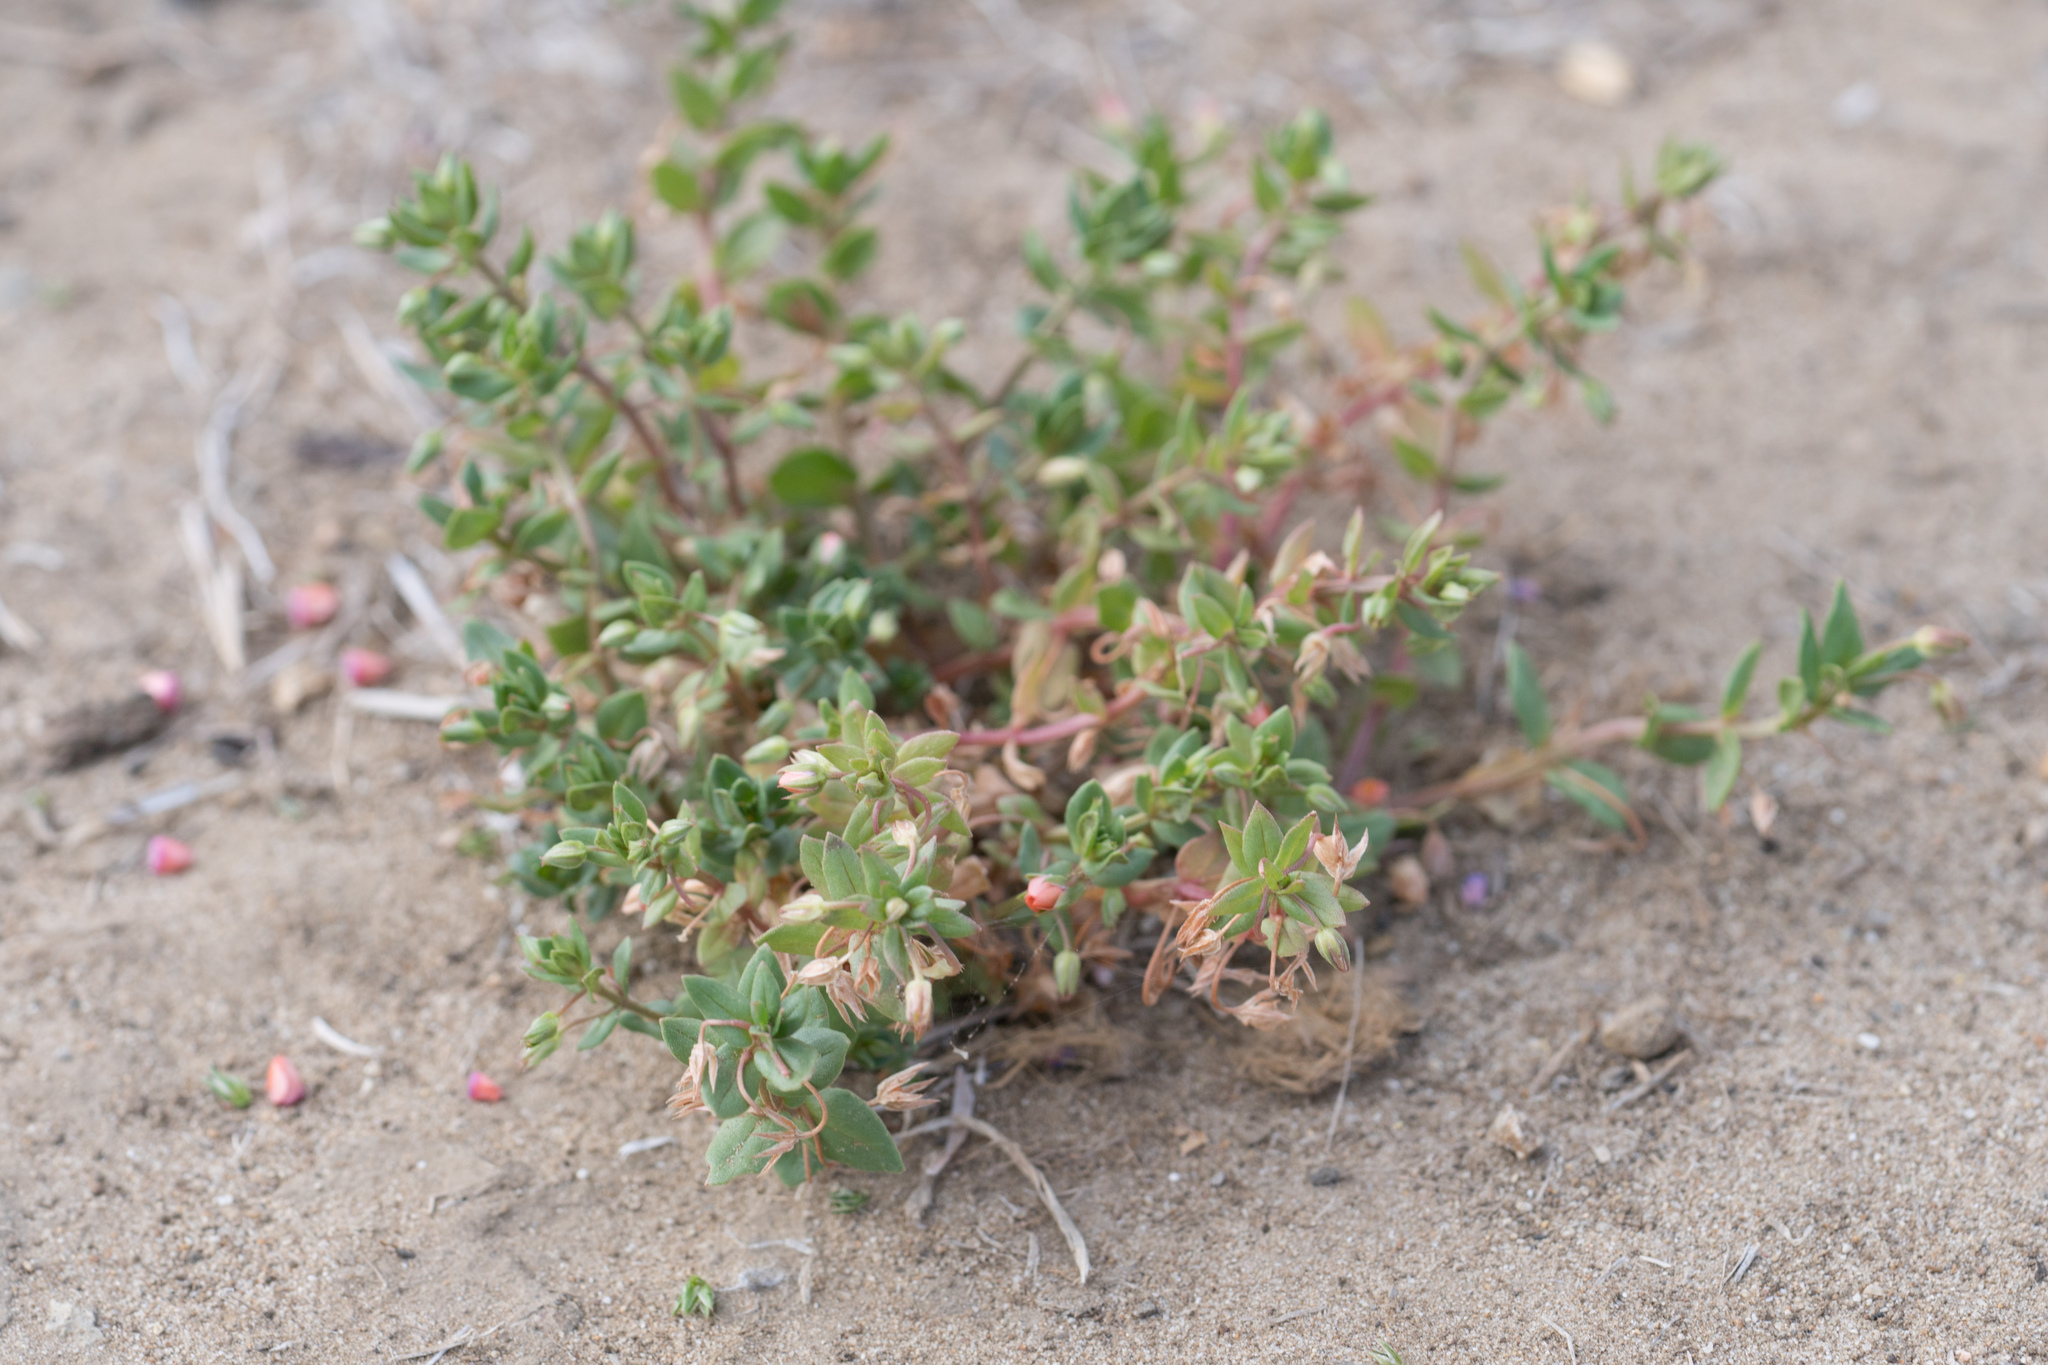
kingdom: Plantae
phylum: Tracheophyta
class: Magnoliopsida
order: Ericales
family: Primulaceae
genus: Lysimachia
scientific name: Lysimachia arvensis
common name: Scarlet pimpernel
